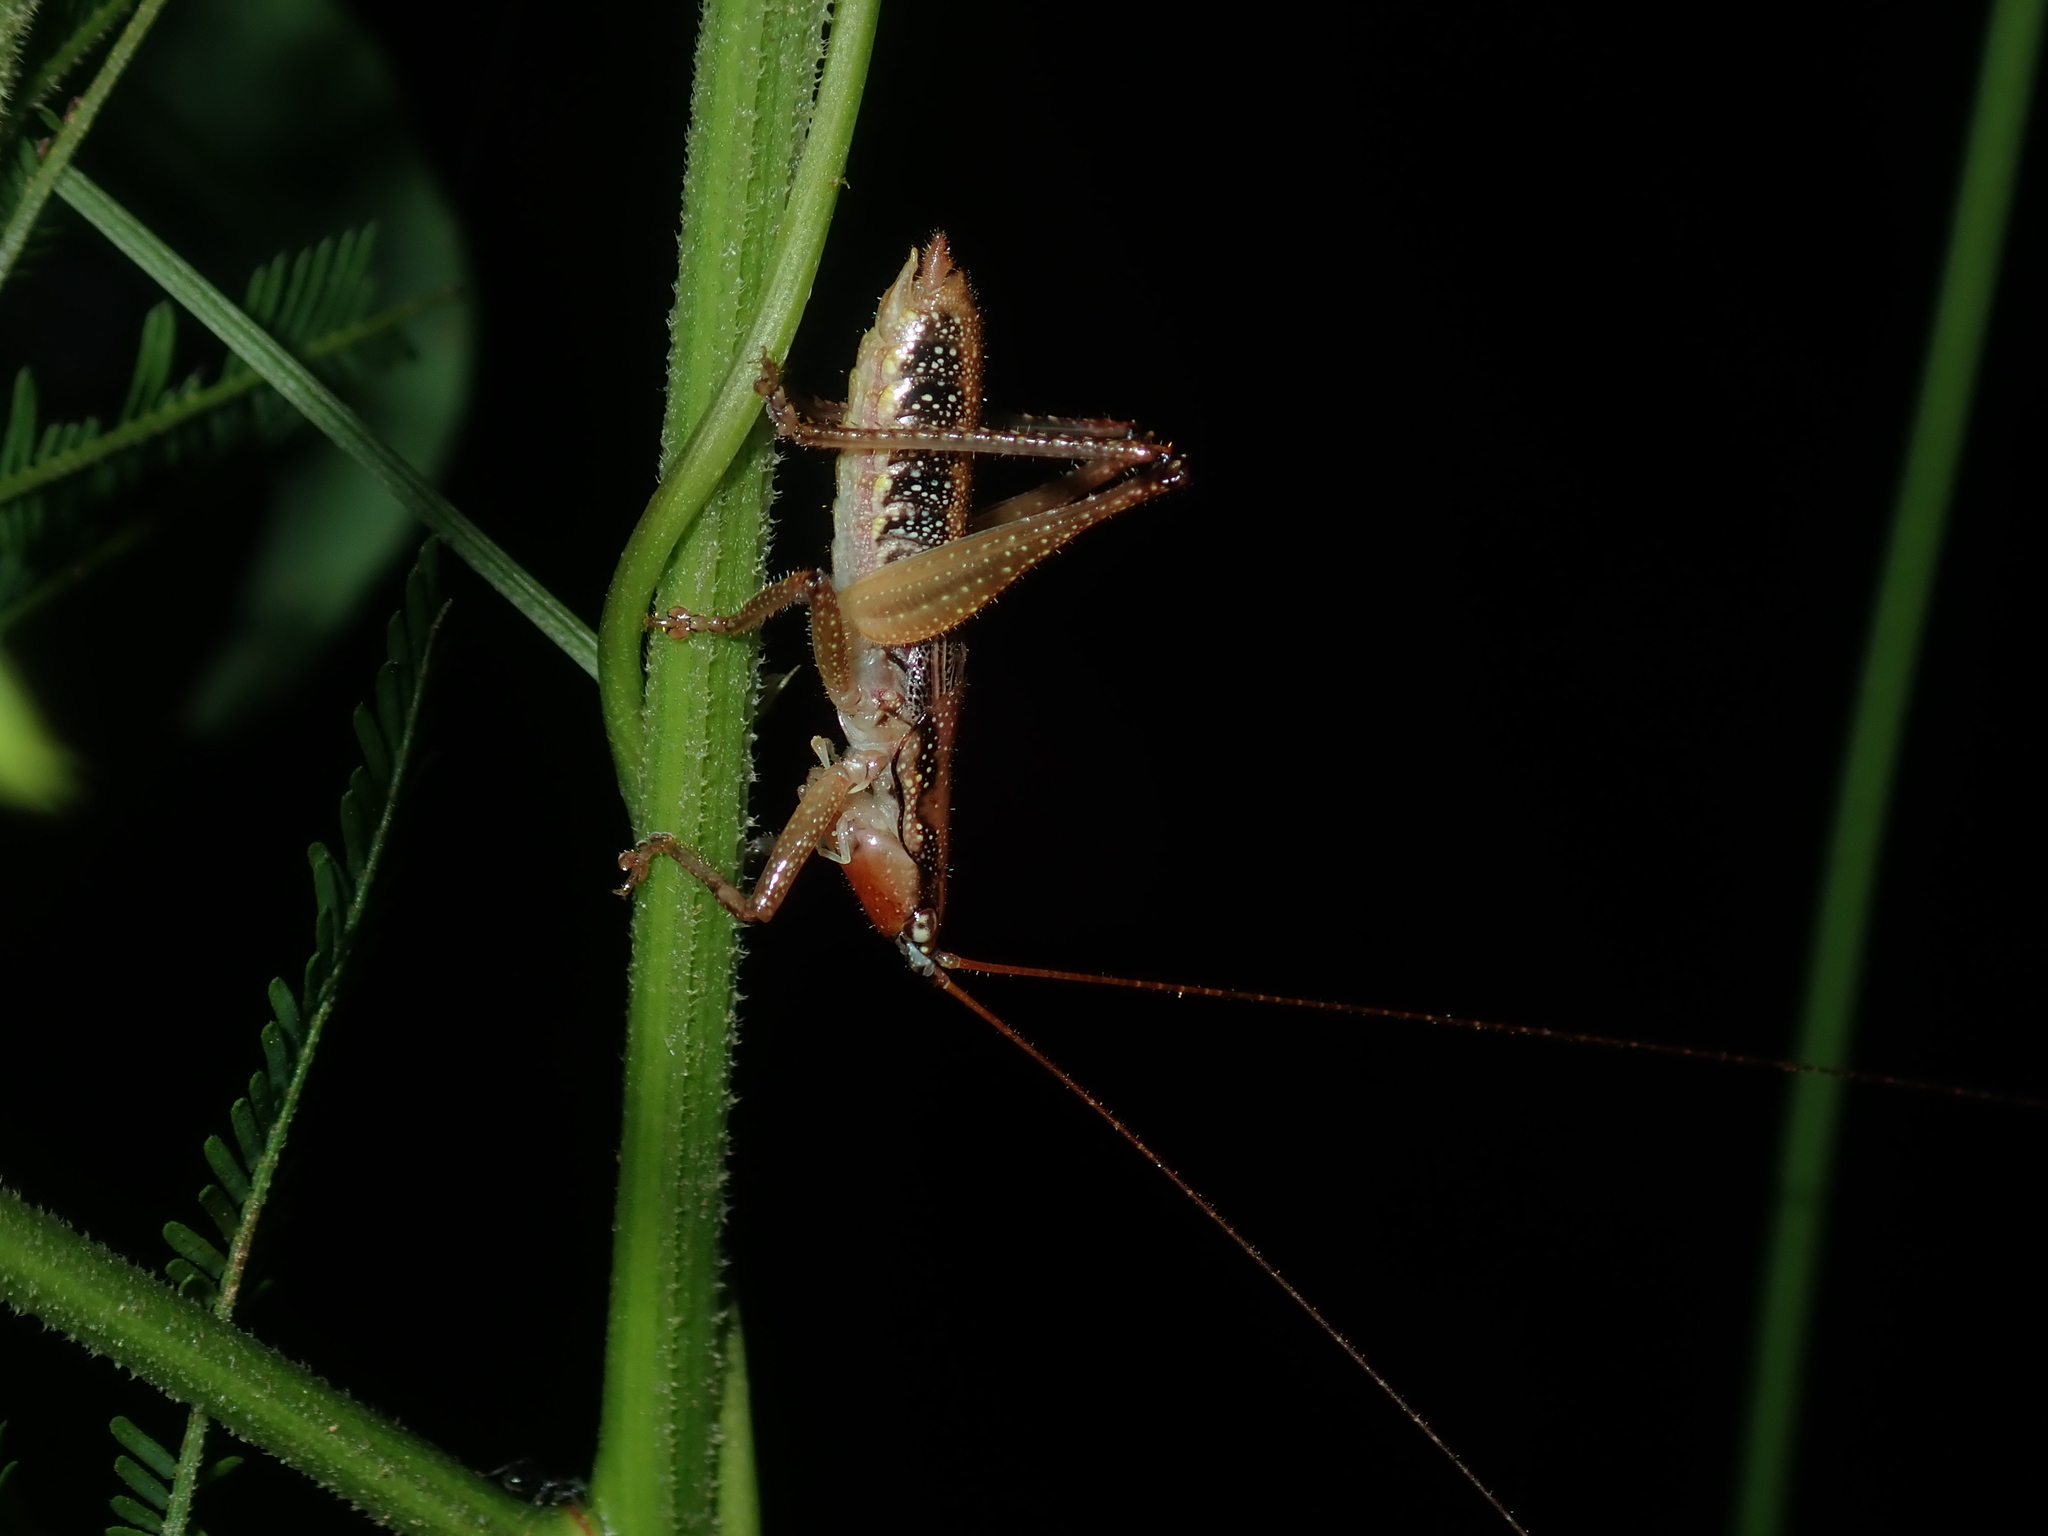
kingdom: Animalia
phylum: Arthropoda
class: Insecta
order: Orthoptera
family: Tettigoniidae
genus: Coptaspis
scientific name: Coptaspis brevipennis
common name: Sidney woodland katydid
